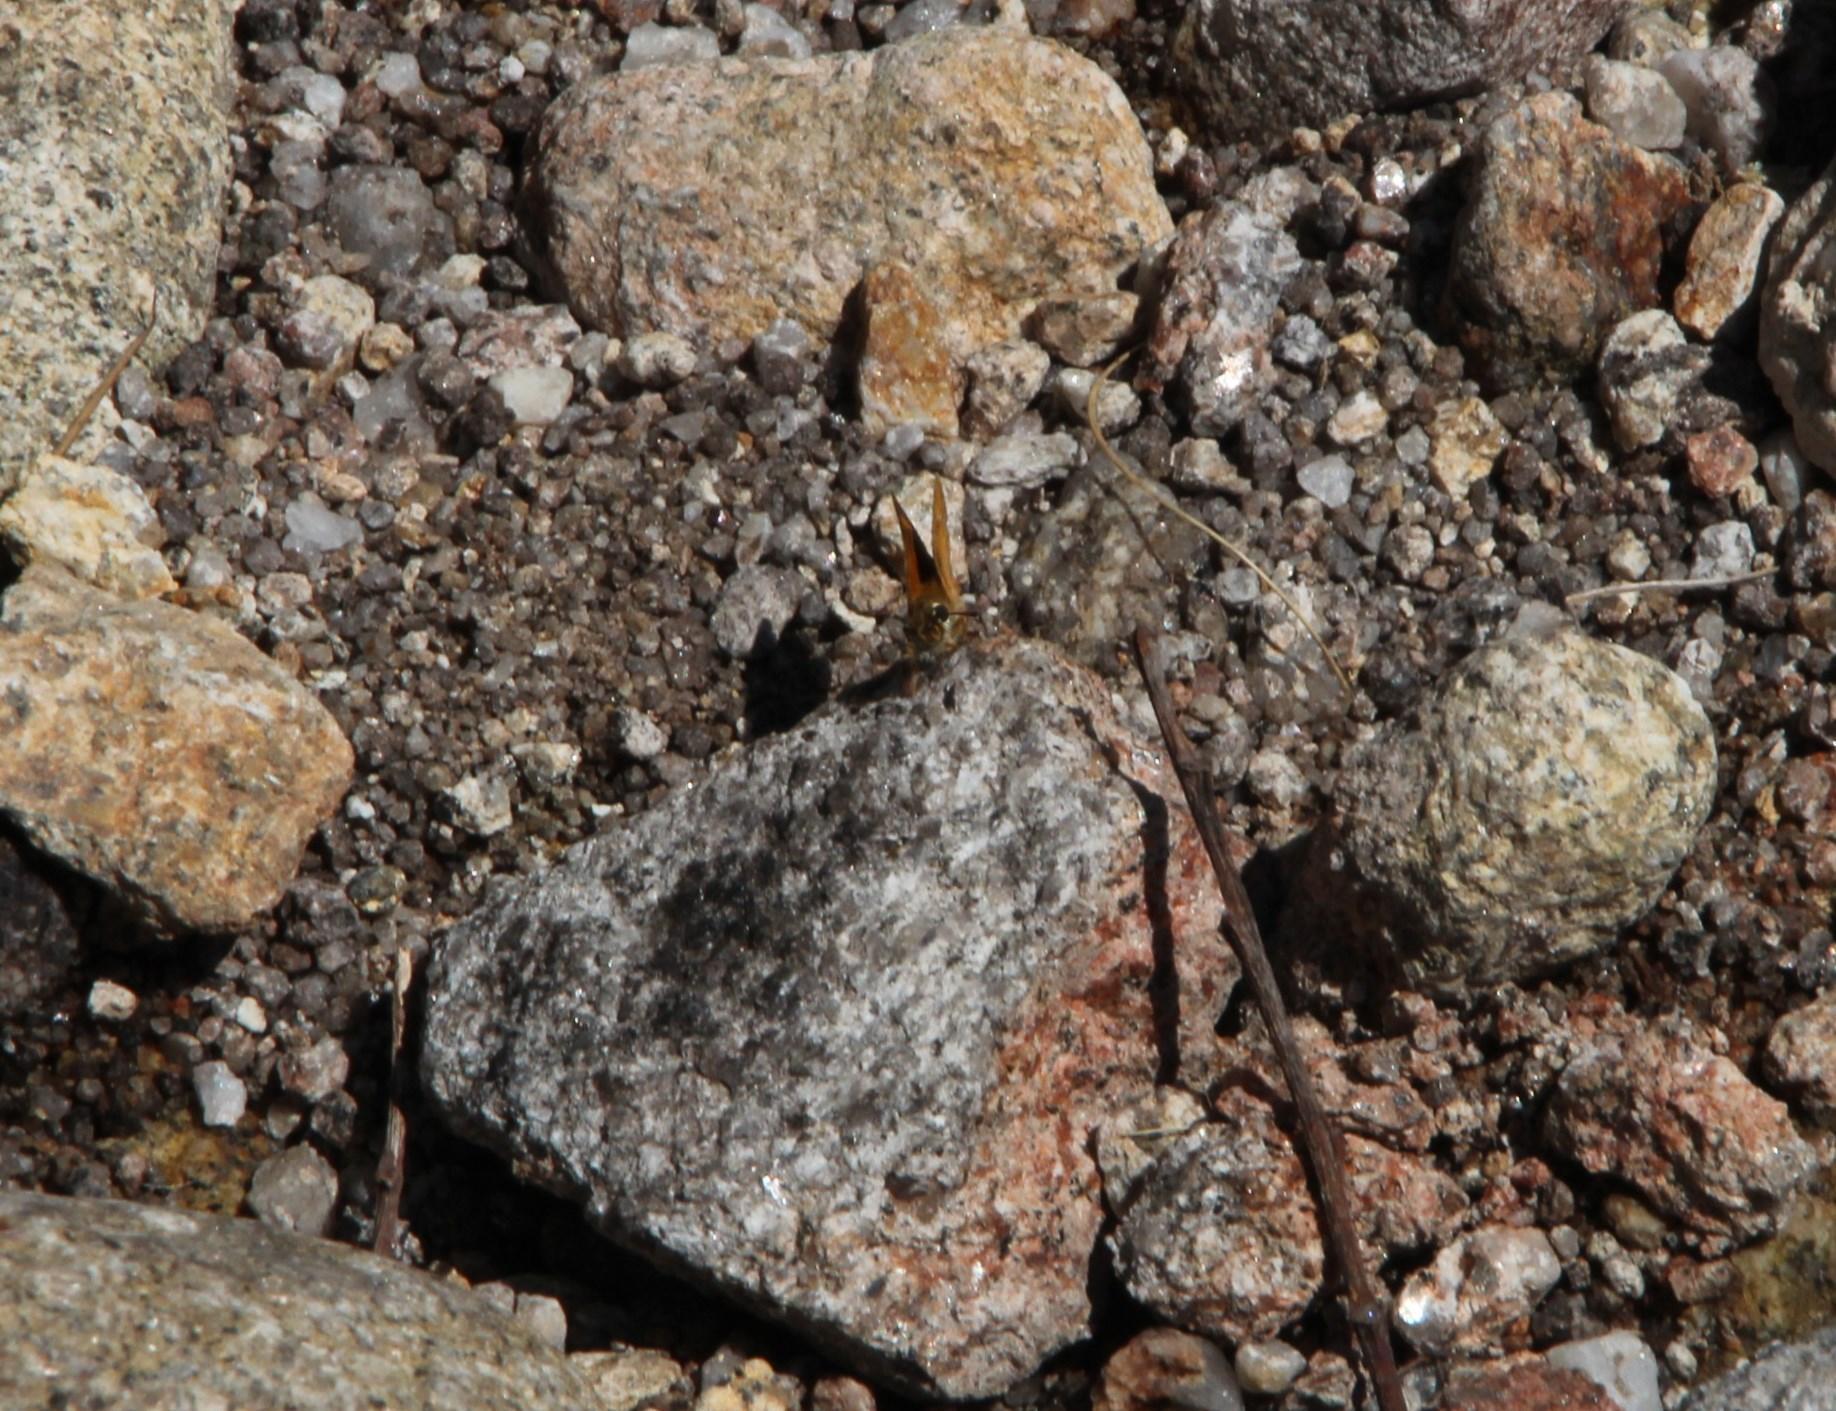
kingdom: Animalia
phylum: Arthropoda
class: Insecta
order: Lepidoptera
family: Hesperiidae
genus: Thymelicus
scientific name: Thymelicus acteon
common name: Lulworth skipper
